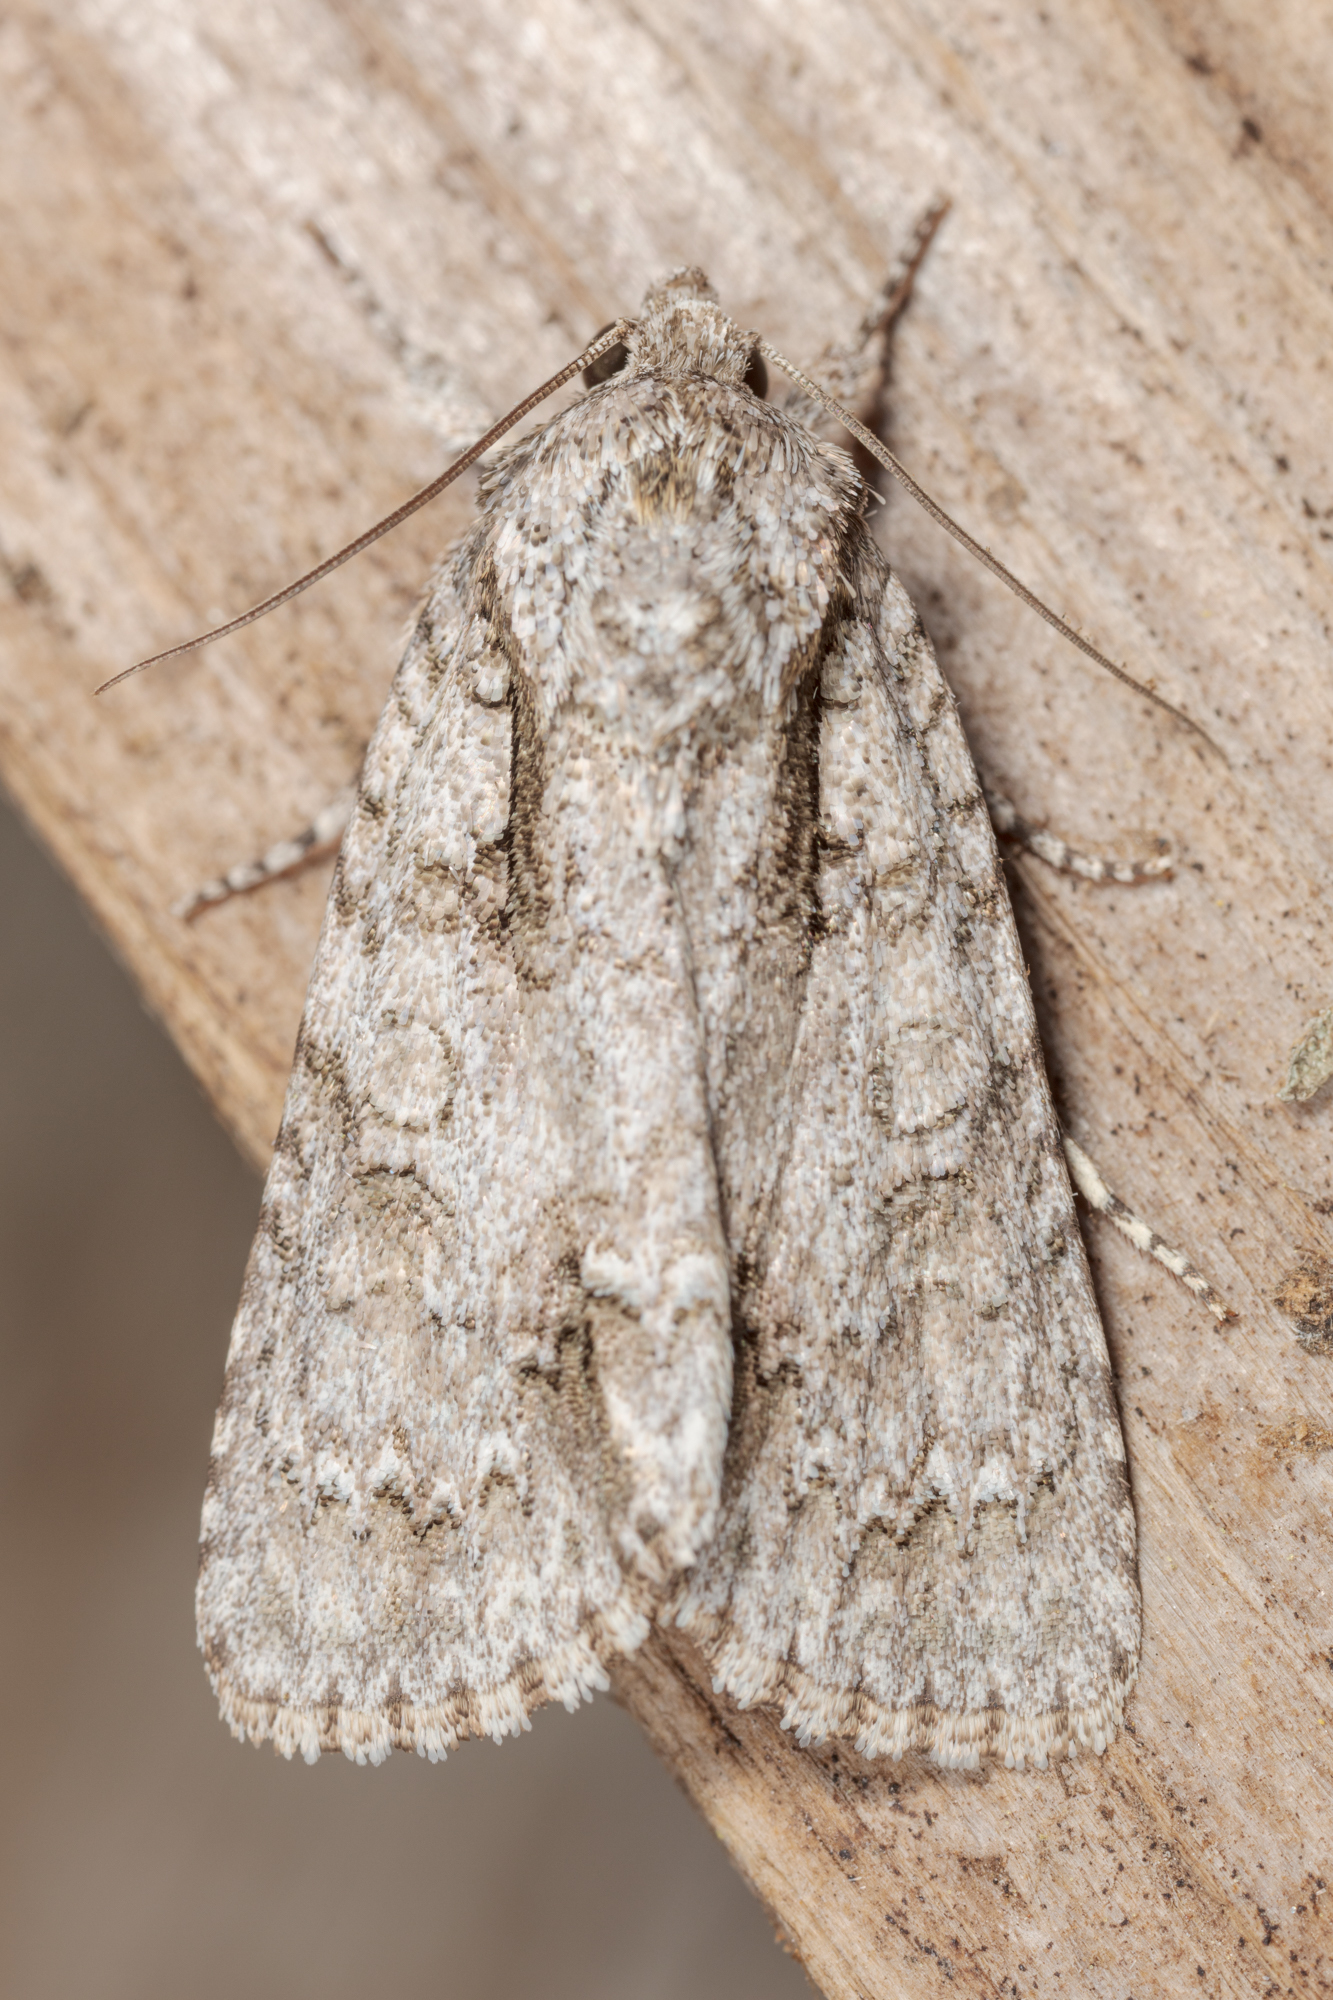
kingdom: Animalia
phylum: Arthropoda
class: Insecta
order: Lepidoptera
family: Noctuidae
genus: Acronicta
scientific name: Acronicta clarescens
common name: Clear dagger
